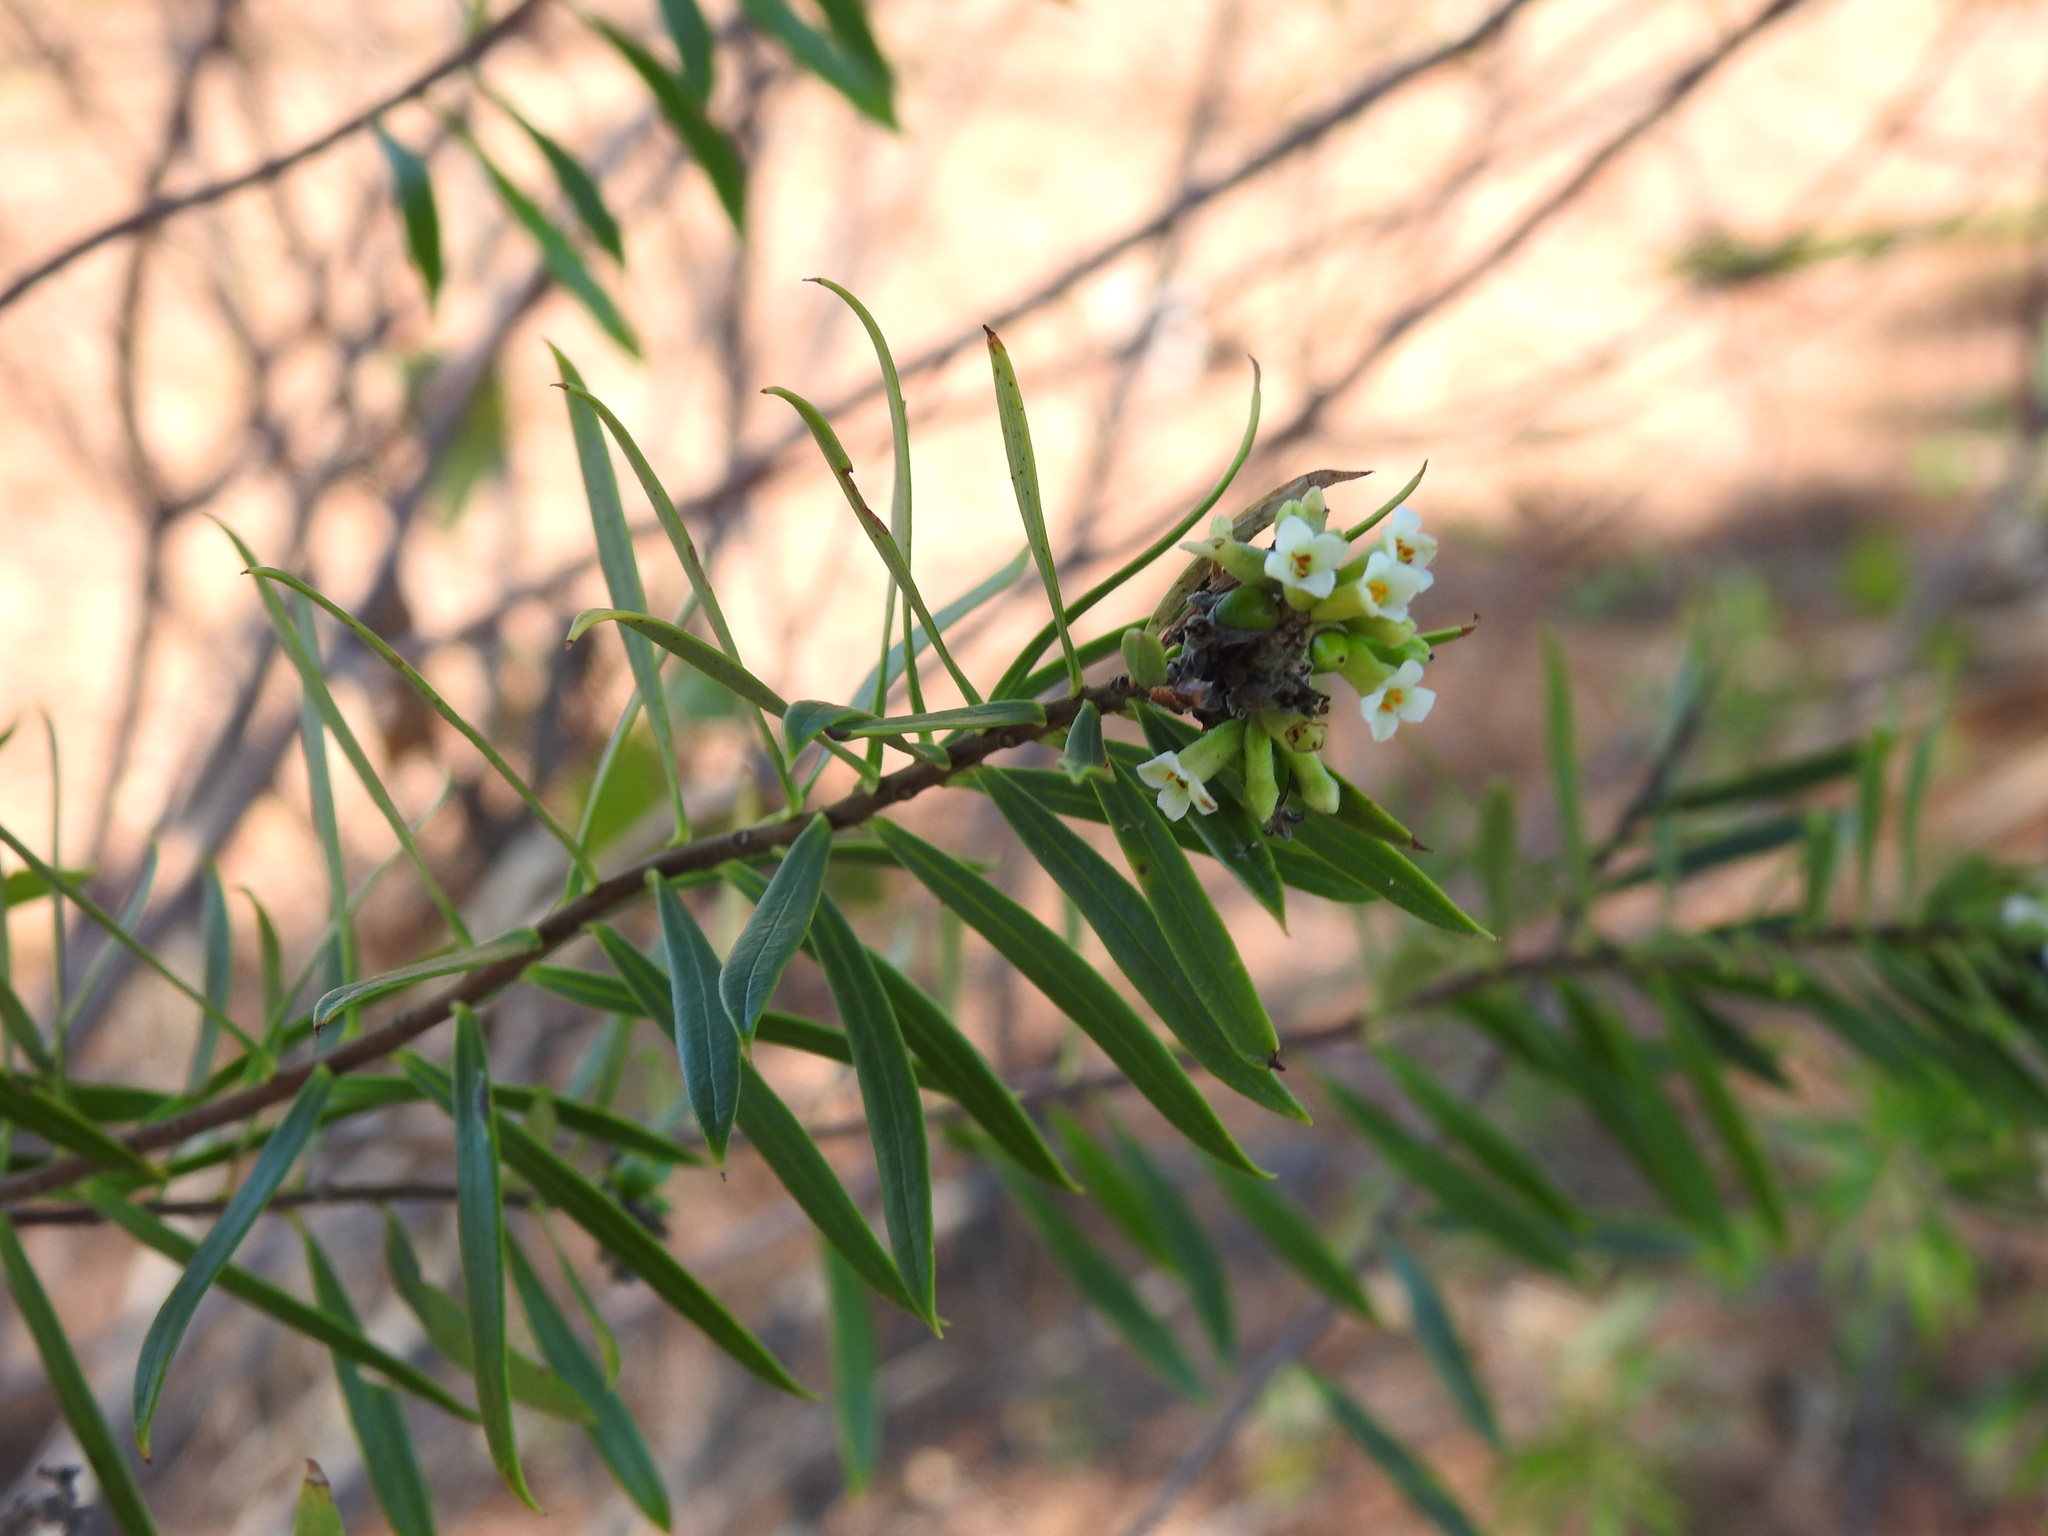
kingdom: Plantae
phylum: Tracheophyta
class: Magnoliopsida
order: Malvales
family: Thymelaeaceae
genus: Daphne
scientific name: Daphne gnidium
